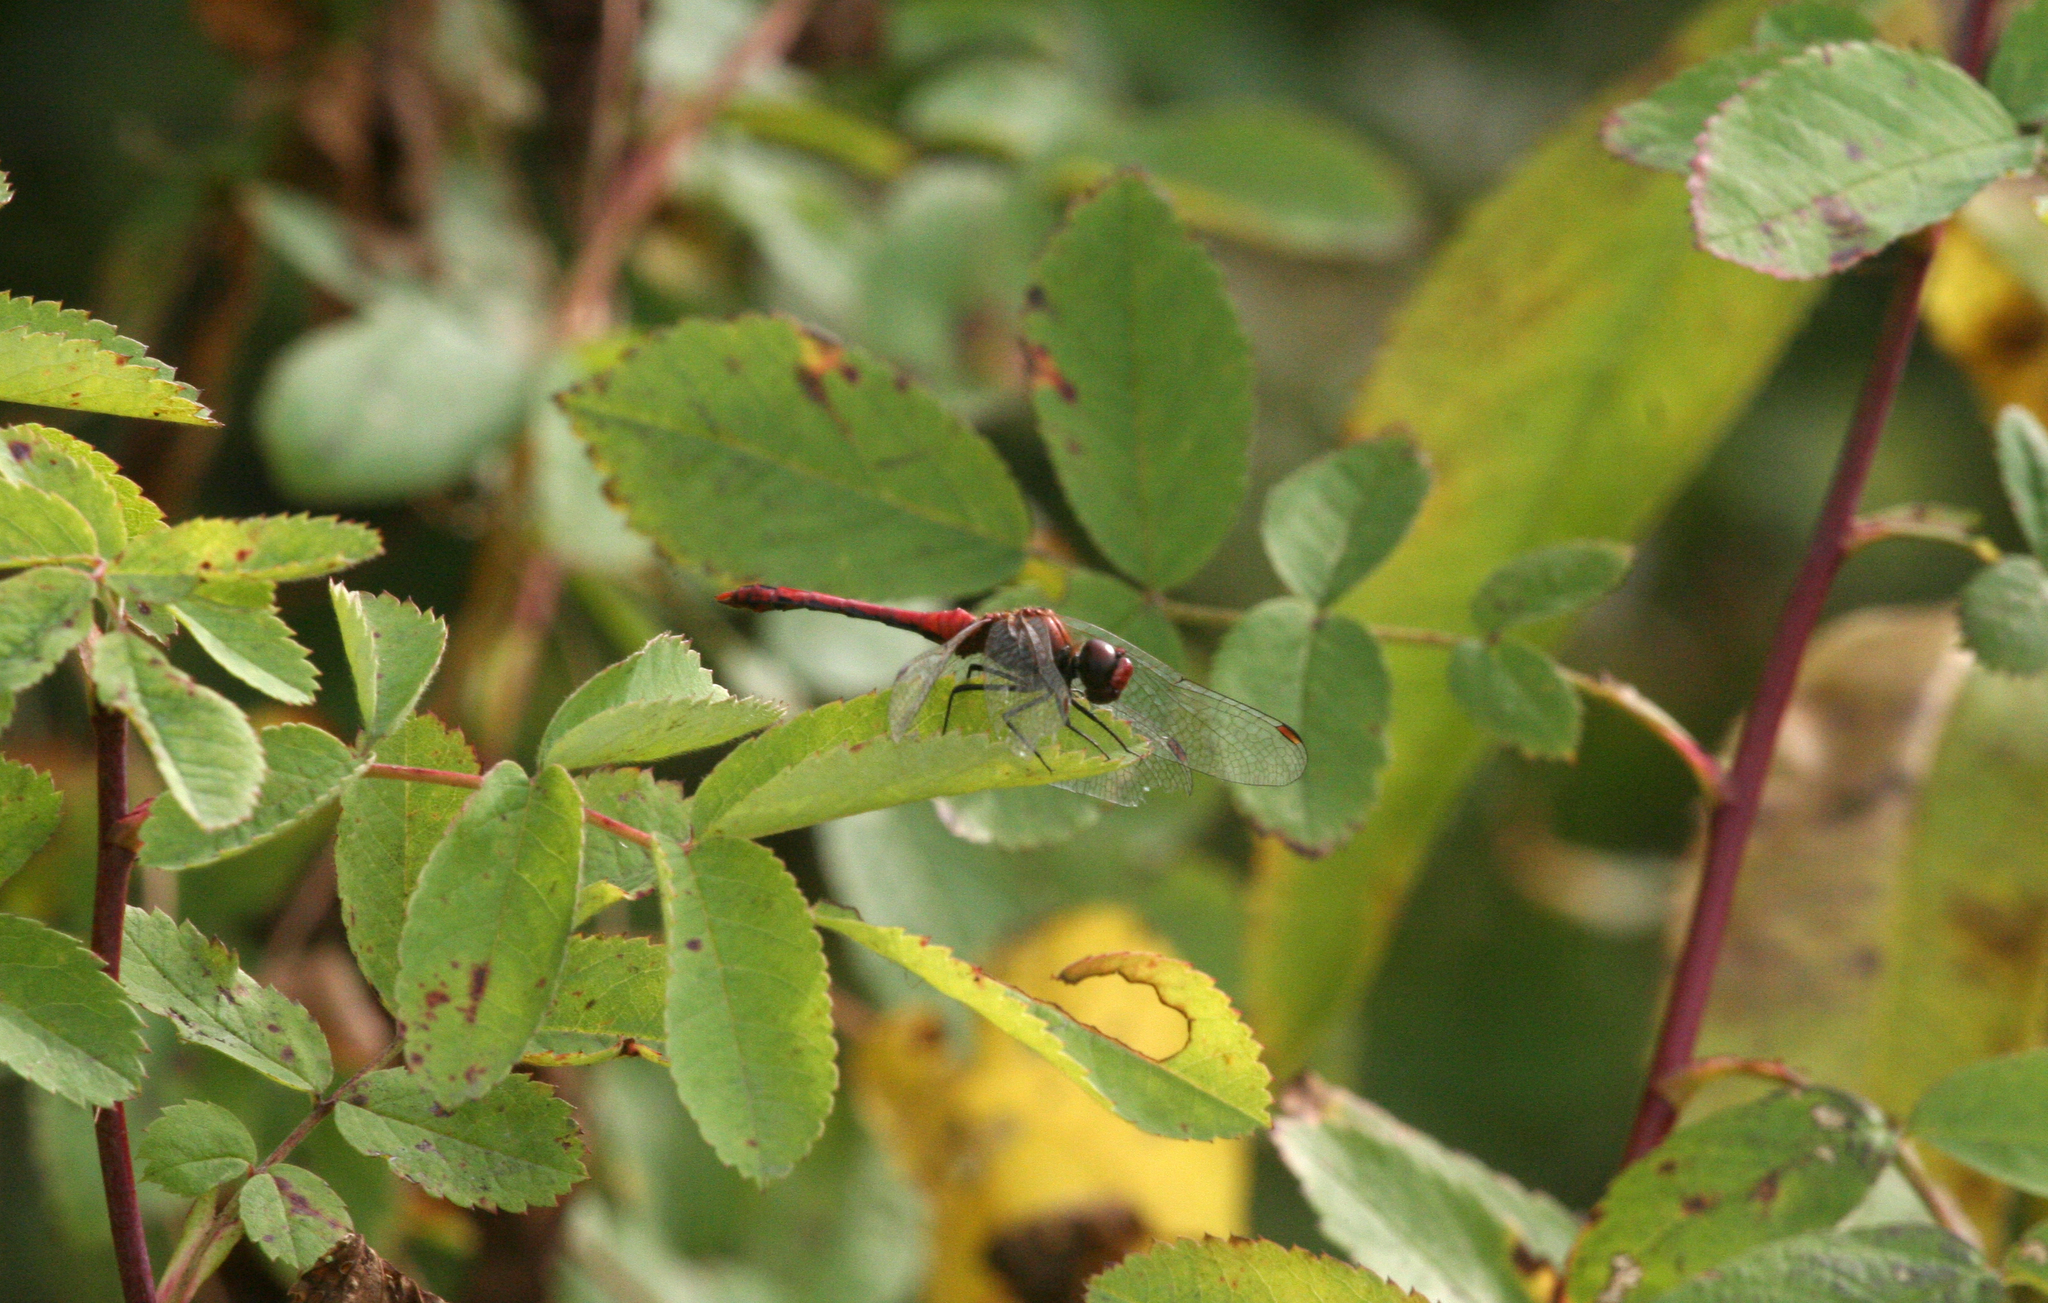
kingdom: Animalia
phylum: Arthropoda
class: Insecta
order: Odonata
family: Libellulidae
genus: Sympetrum
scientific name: Sympetrum sanguineum
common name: Ruddy darter
